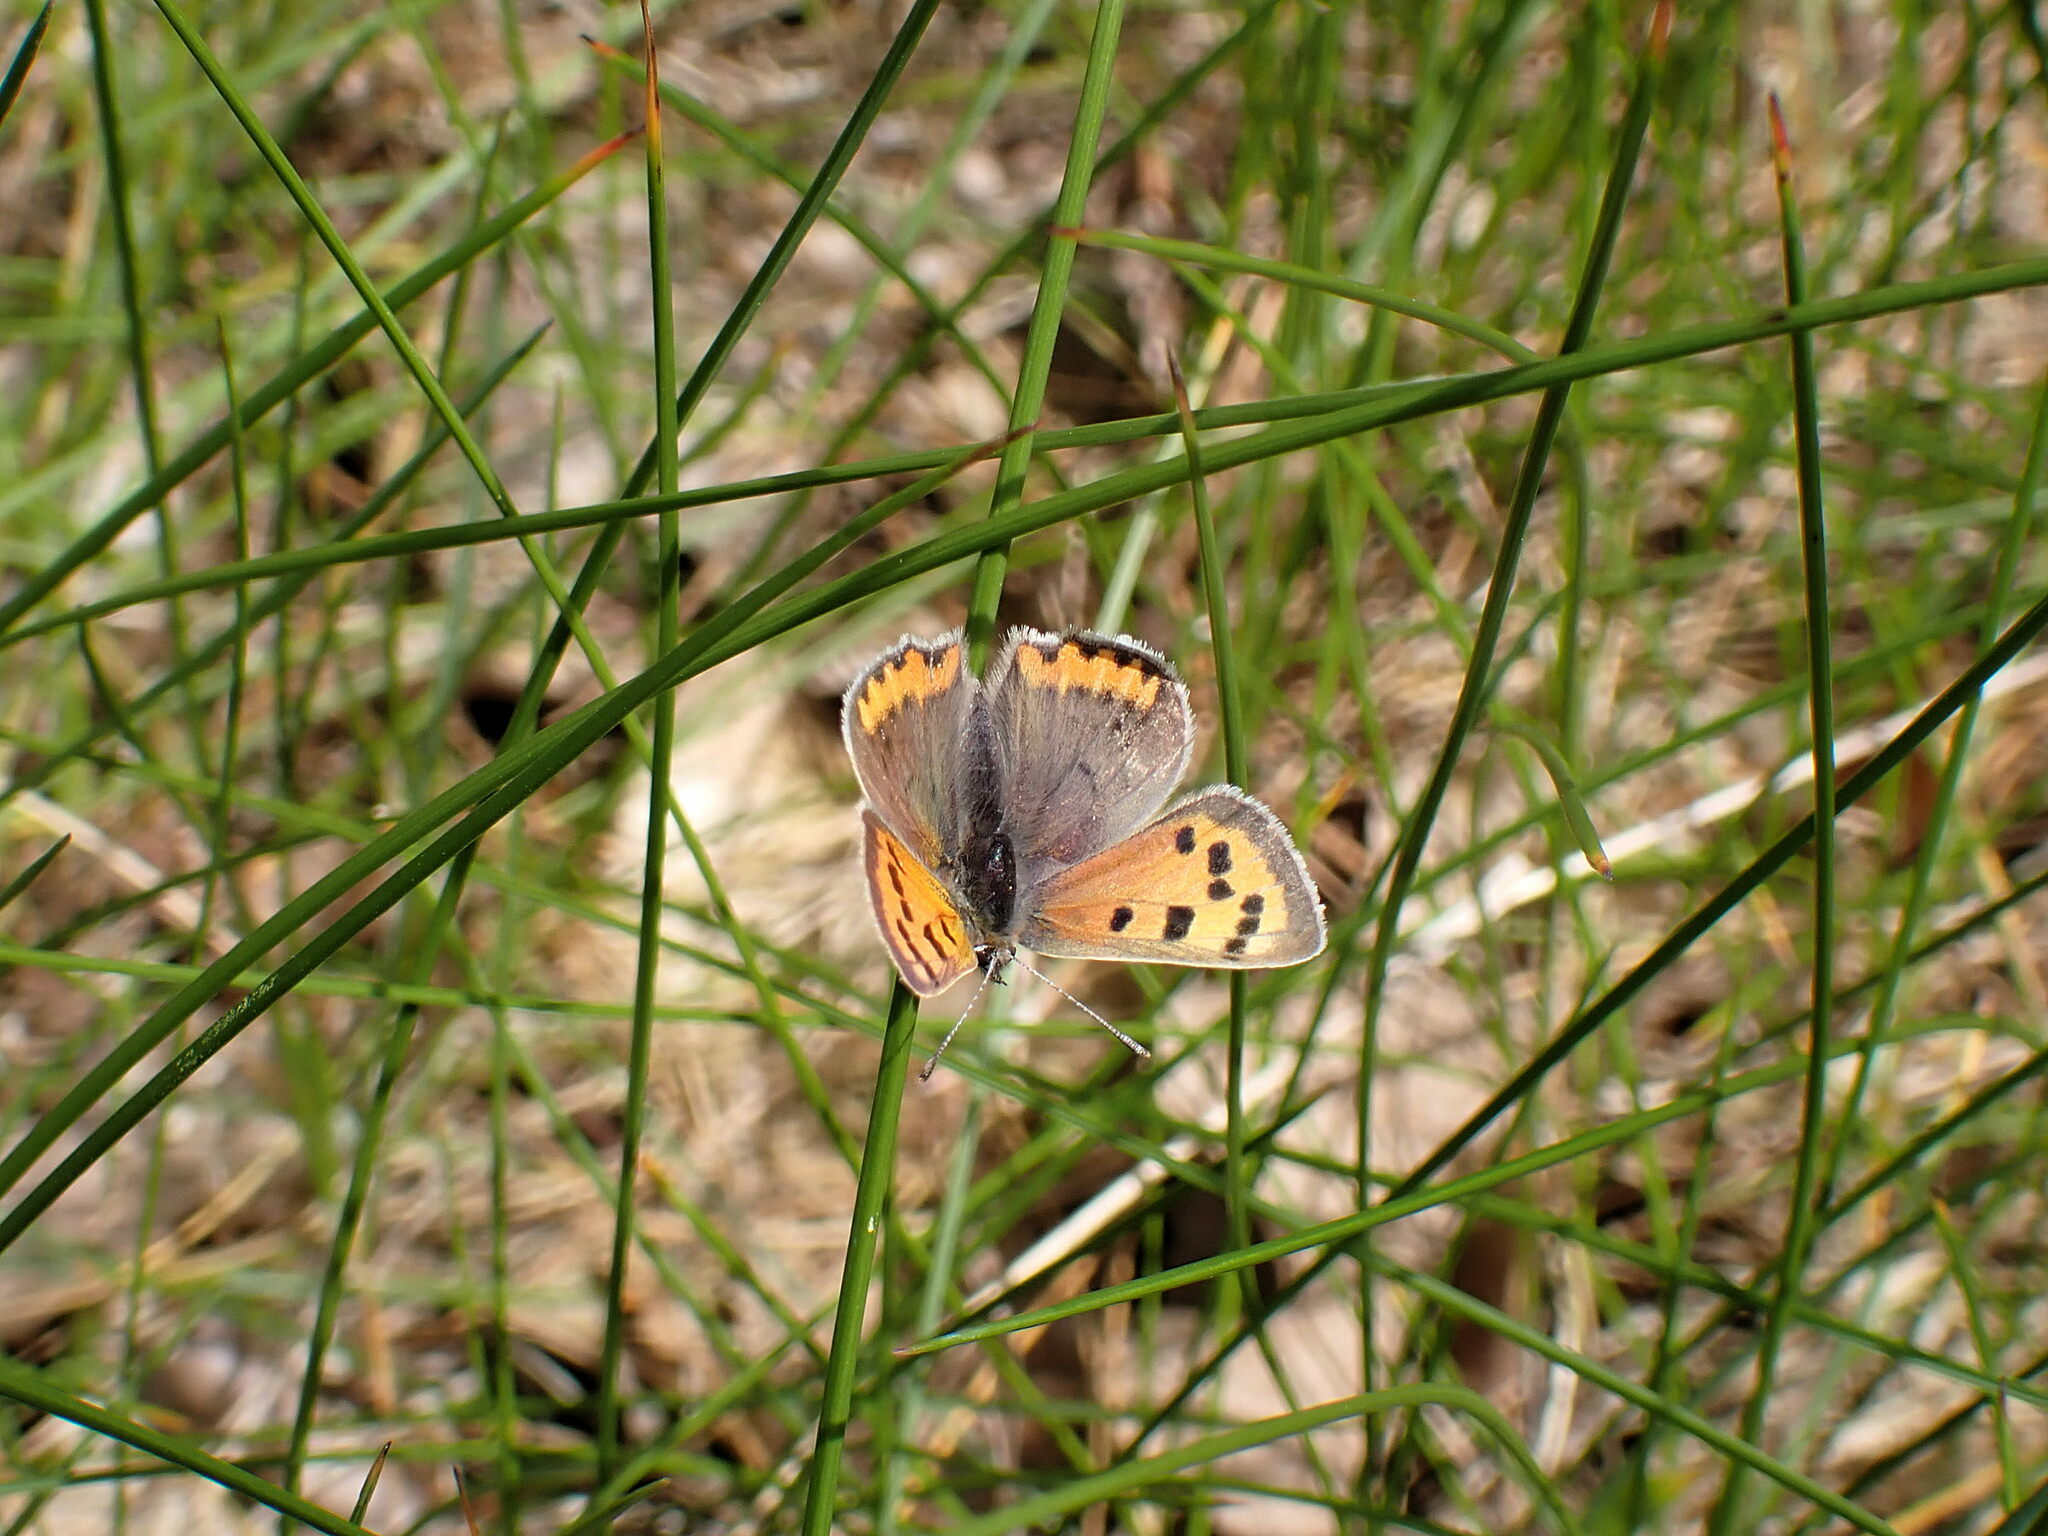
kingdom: Animalia
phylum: Arthropoda
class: Insecta
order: Lepidoptera
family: Lycaenidae
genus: Lycaena
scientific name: Lycaena phlaeas
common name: Small copper
